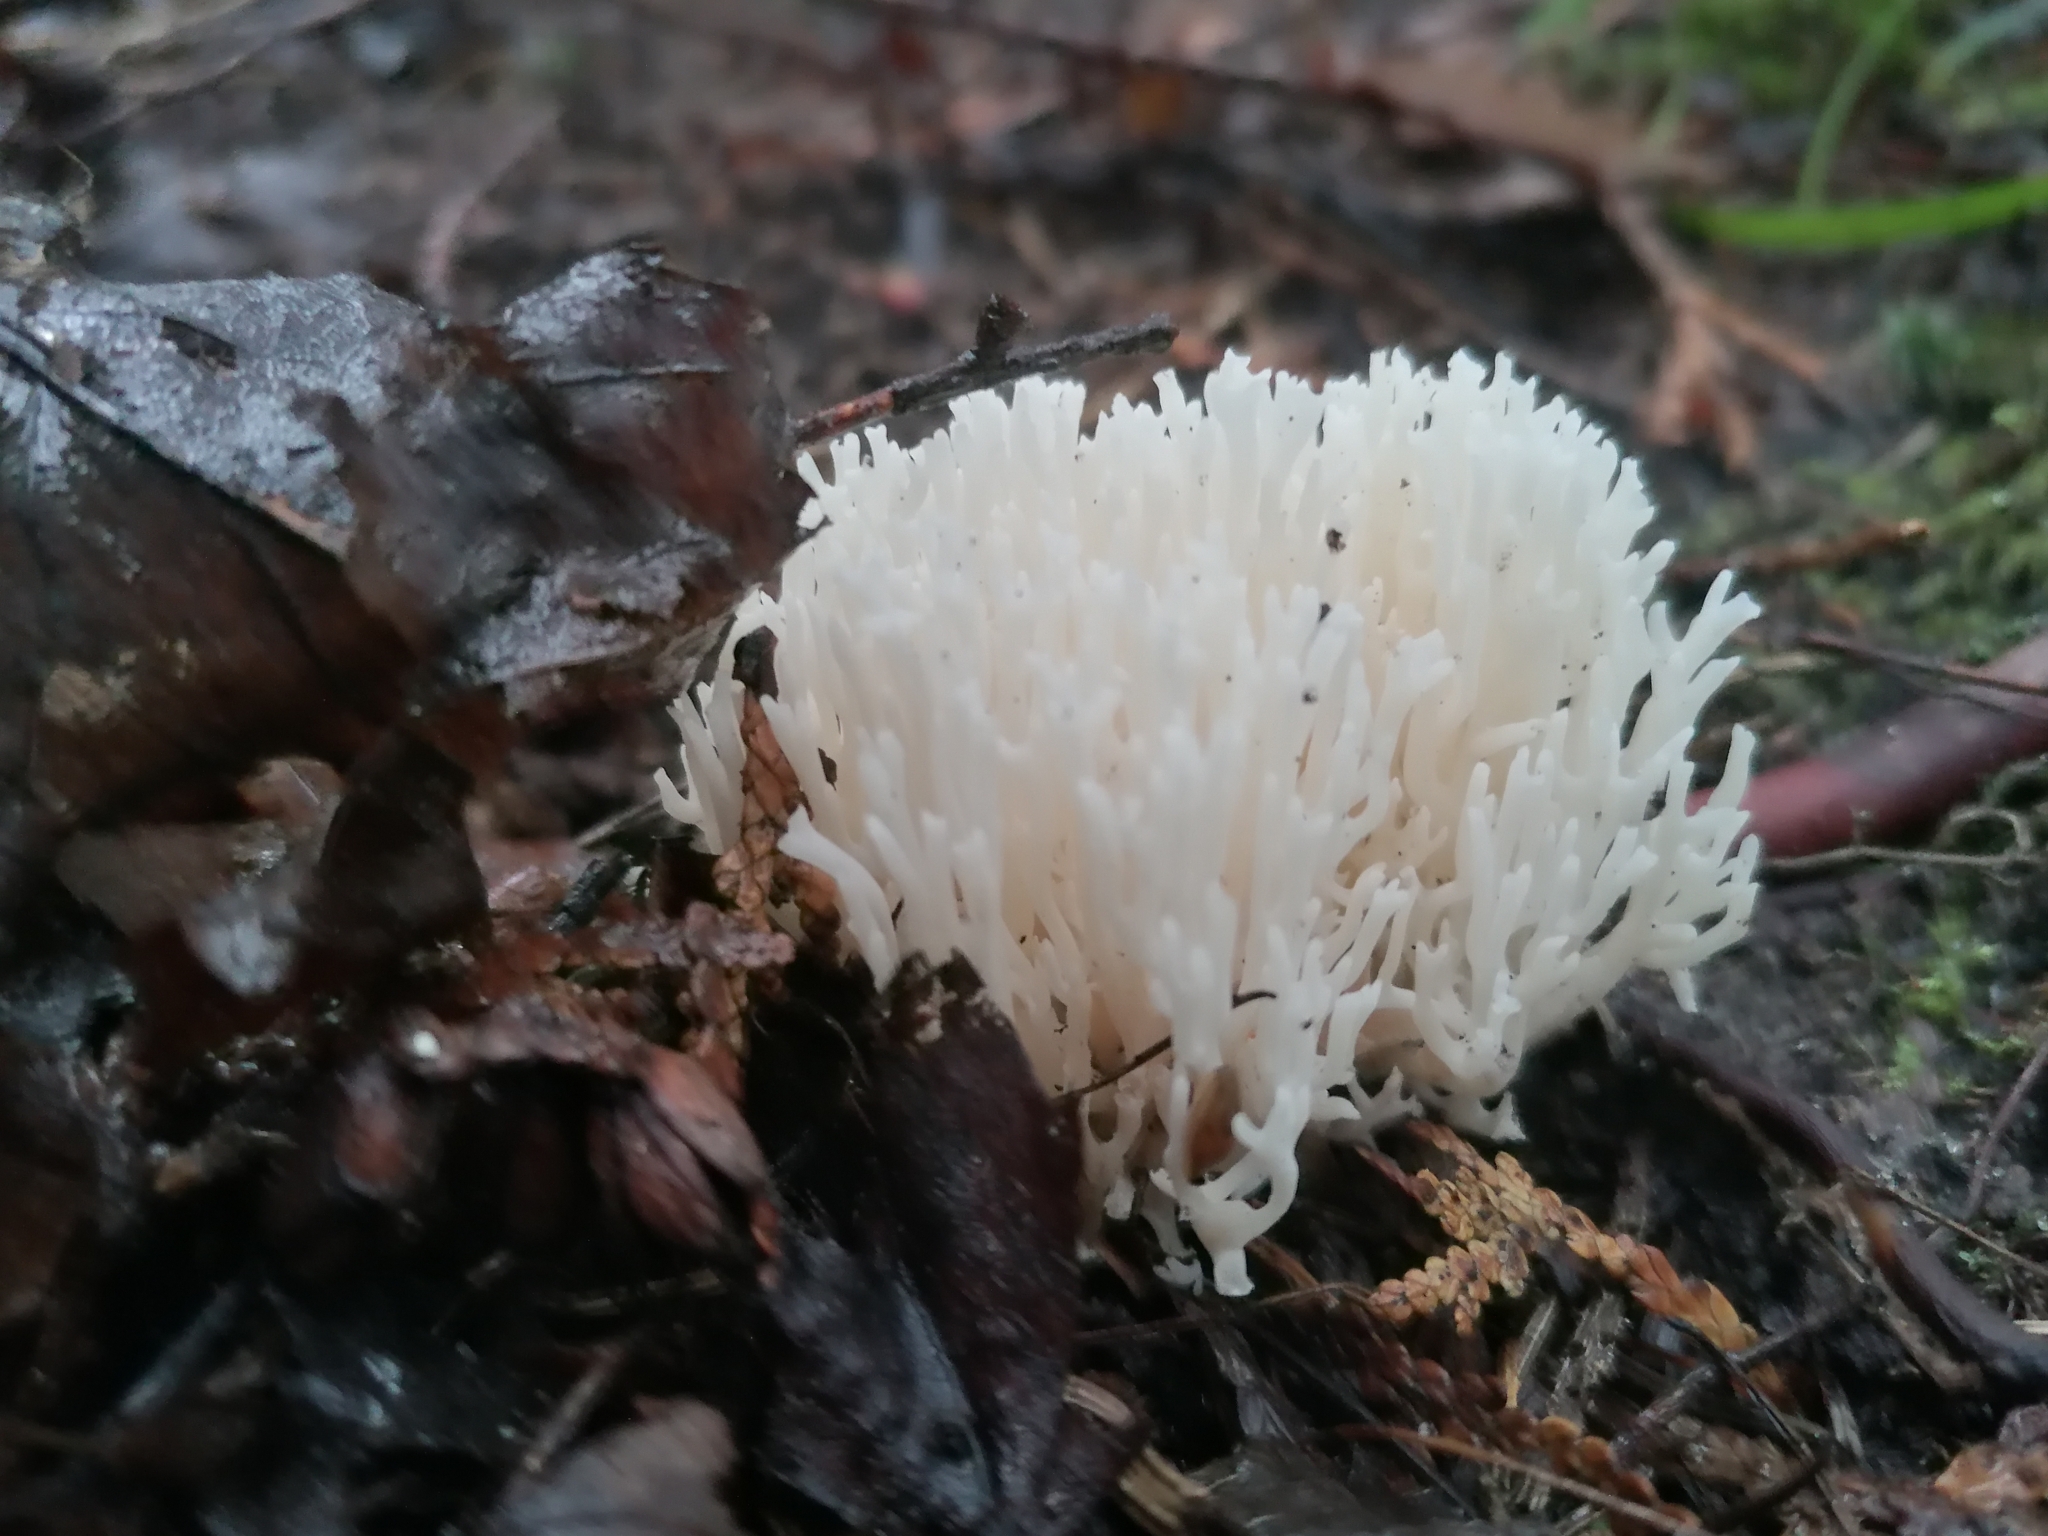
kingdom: Fungi
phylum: Basidiomycota
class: Agaricomycetes
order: Agaricales
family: Clavariaceae
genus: Ramariopsis
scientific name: Ramariopsis kunzei
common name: Ivory coral
